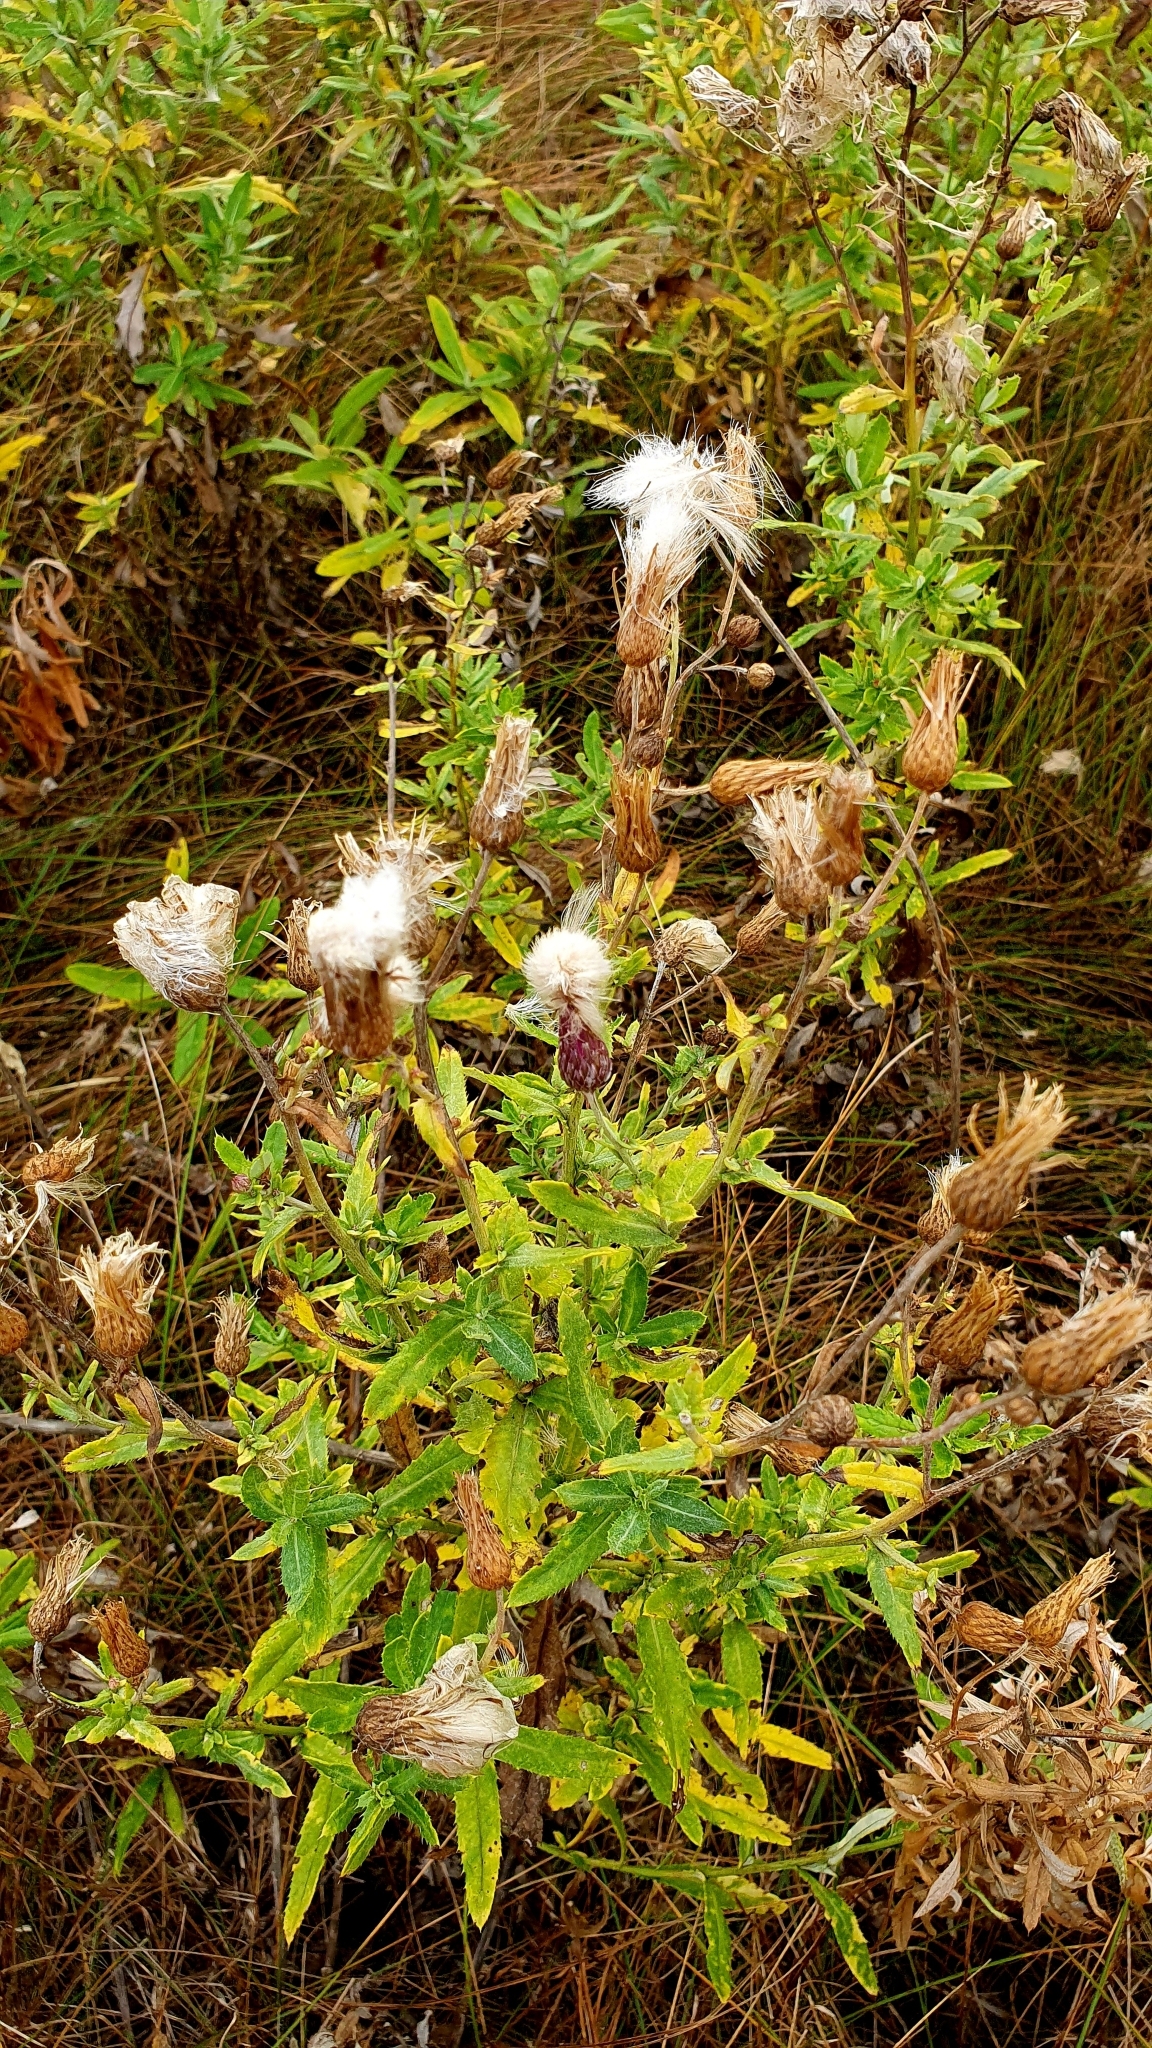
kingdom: Plantae
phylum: Tracheophyta
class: Magnoliopsida
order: Asterales
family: Asteraceae
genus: Cirsium
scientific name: Cirsium arvense
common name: Creeping thistle
